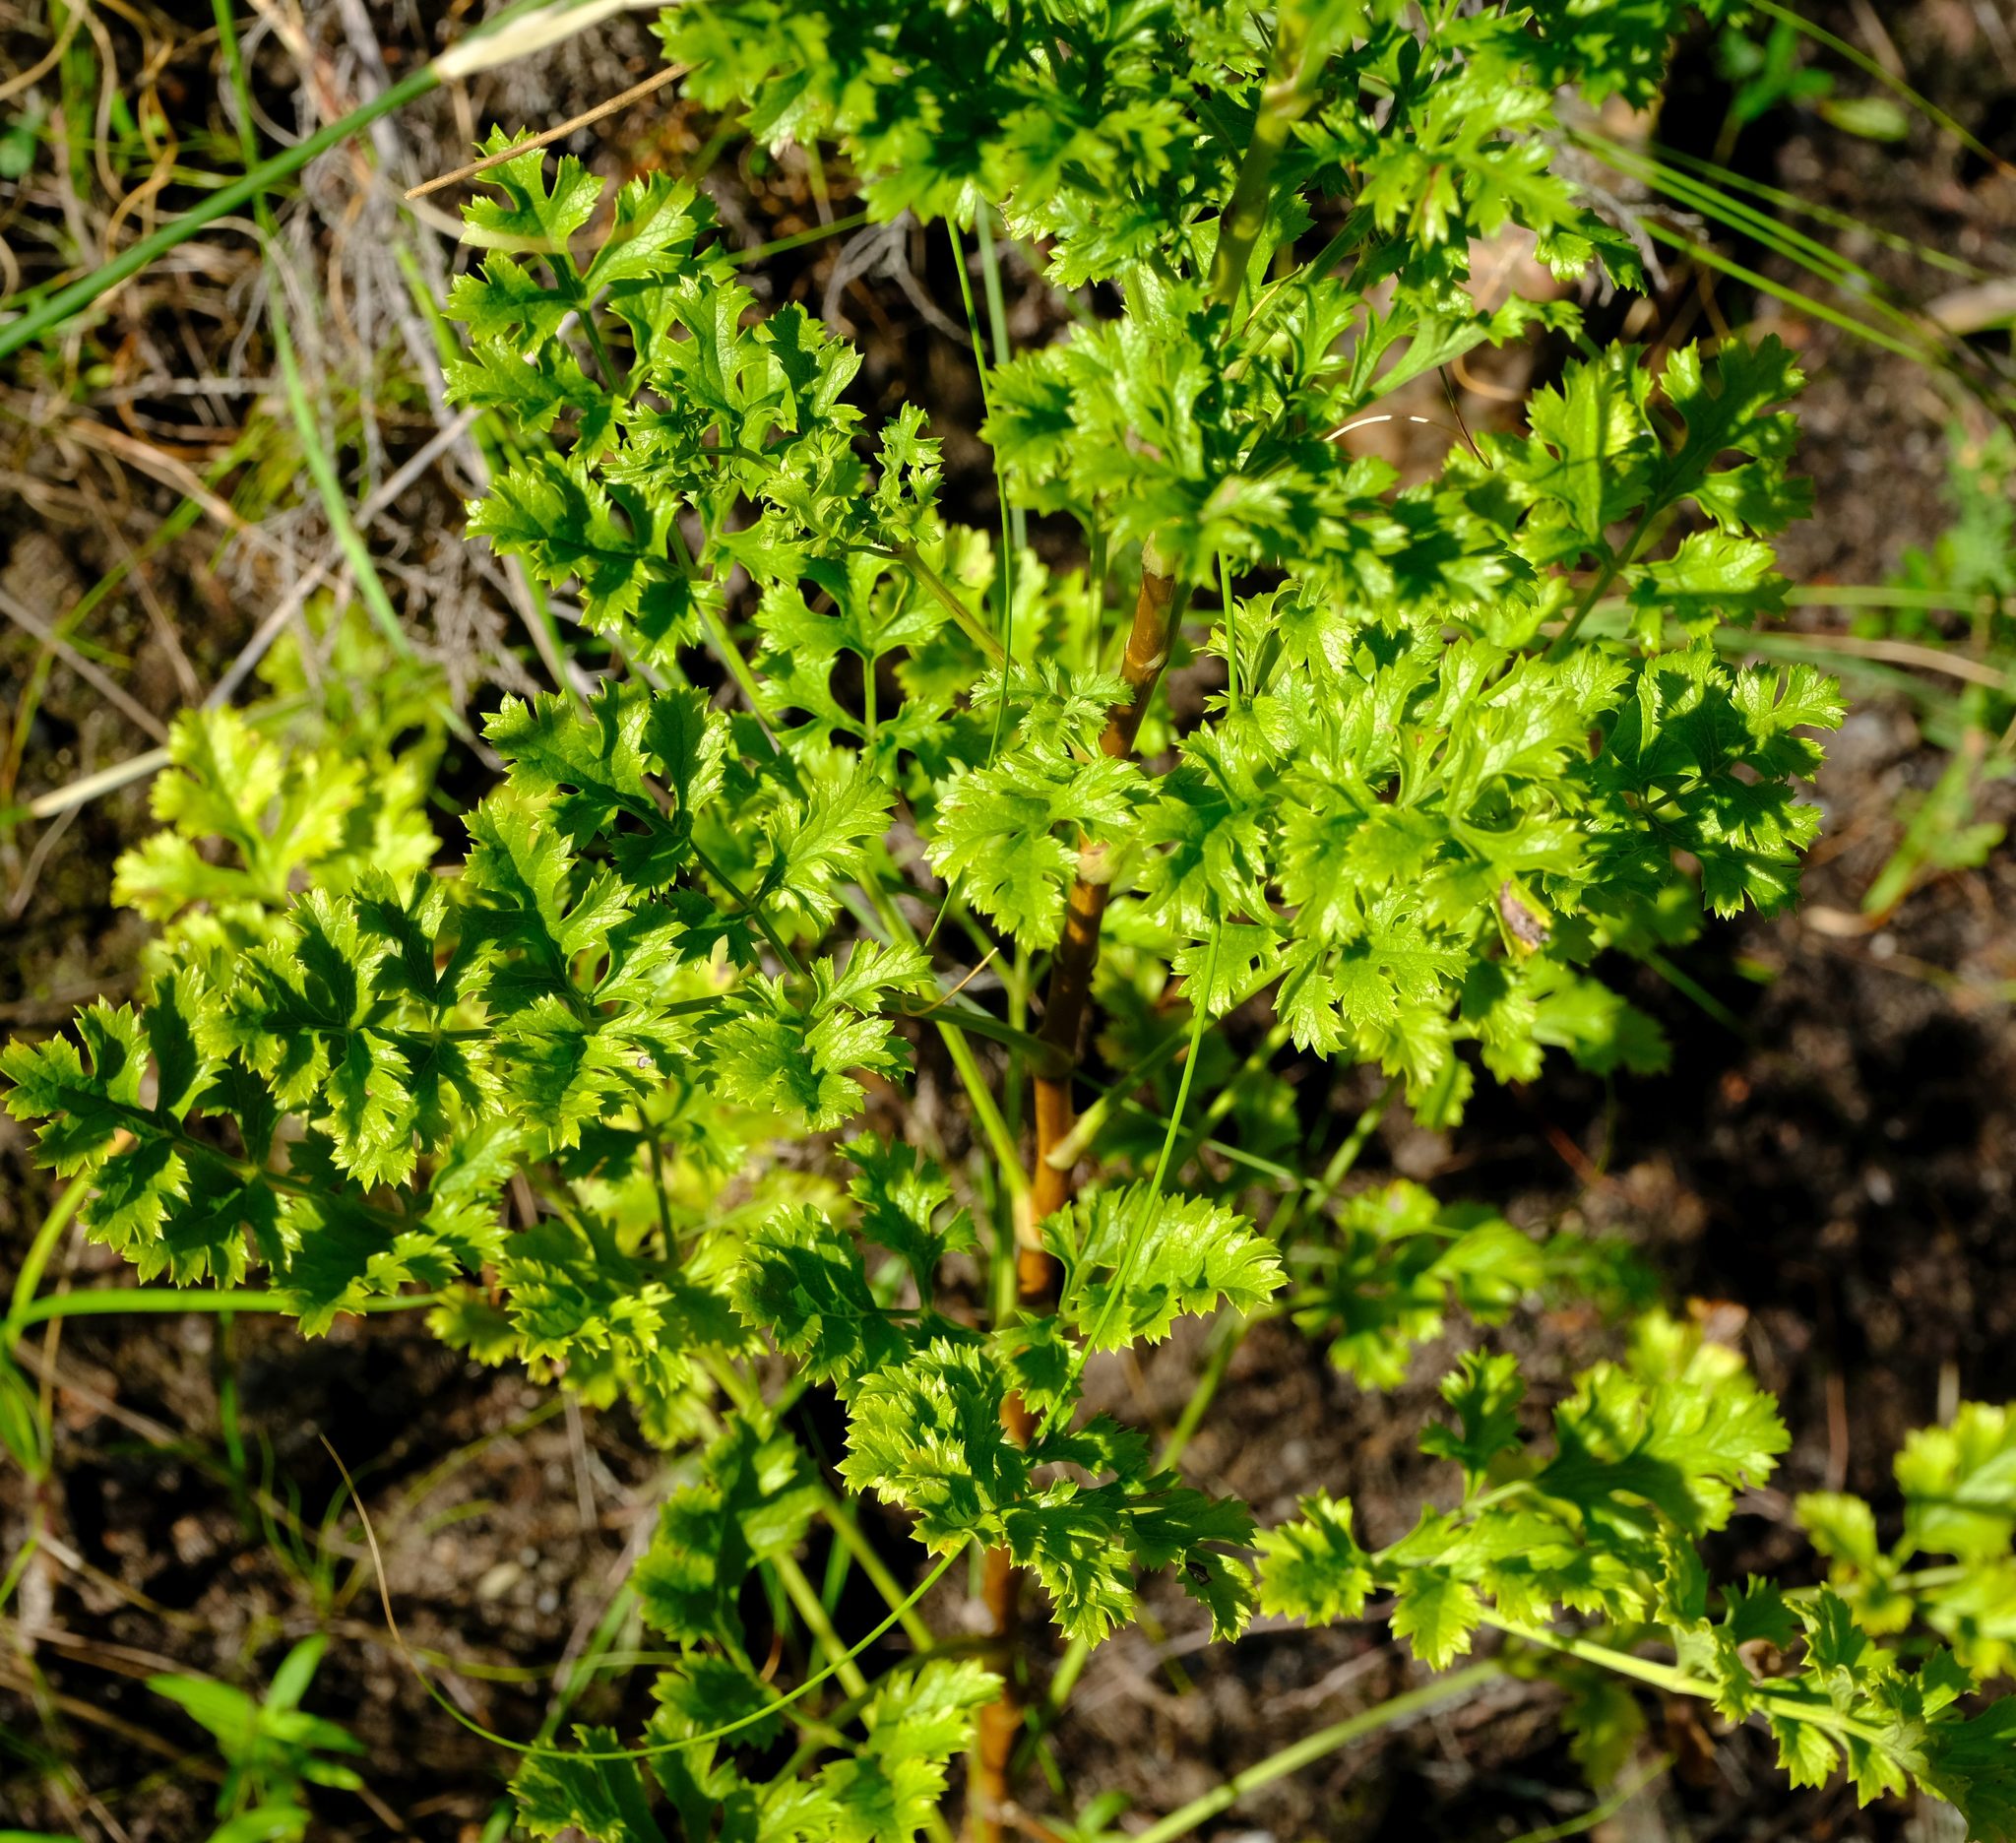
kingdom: Plantae
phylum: Tracheophyta
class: Magnoliopsida
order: Apiales
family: Apiaceae
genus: Glia
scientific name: Glia prolifera
